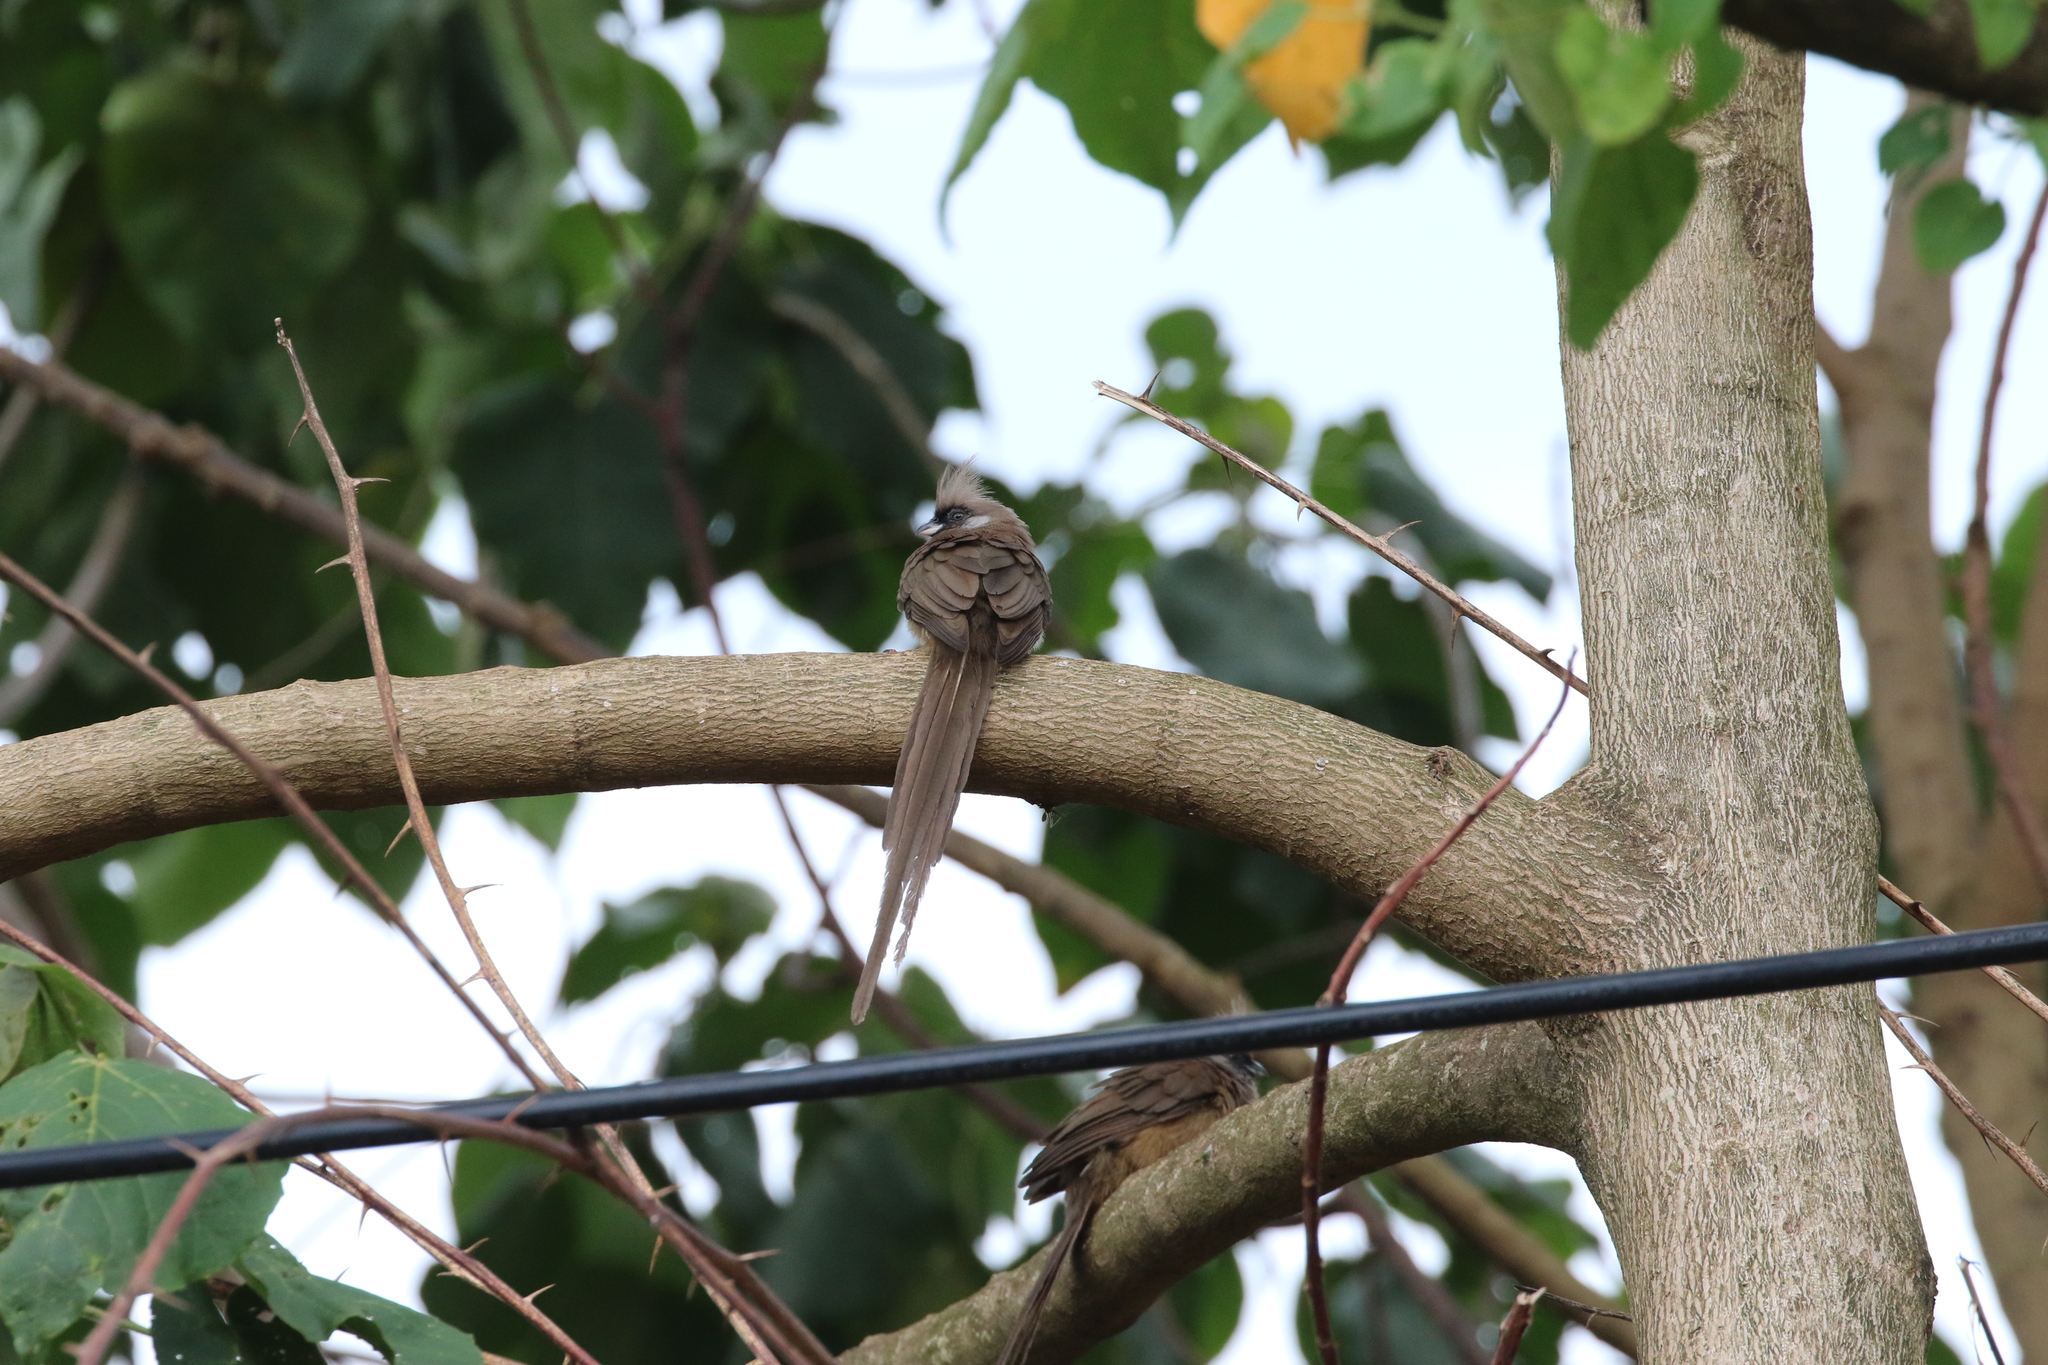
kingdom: Animalia
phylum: Chordata
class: Aves
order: Coliiformes
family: Coliidae
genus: Colius
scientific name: Colius striatus
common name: Speckled mousebird
